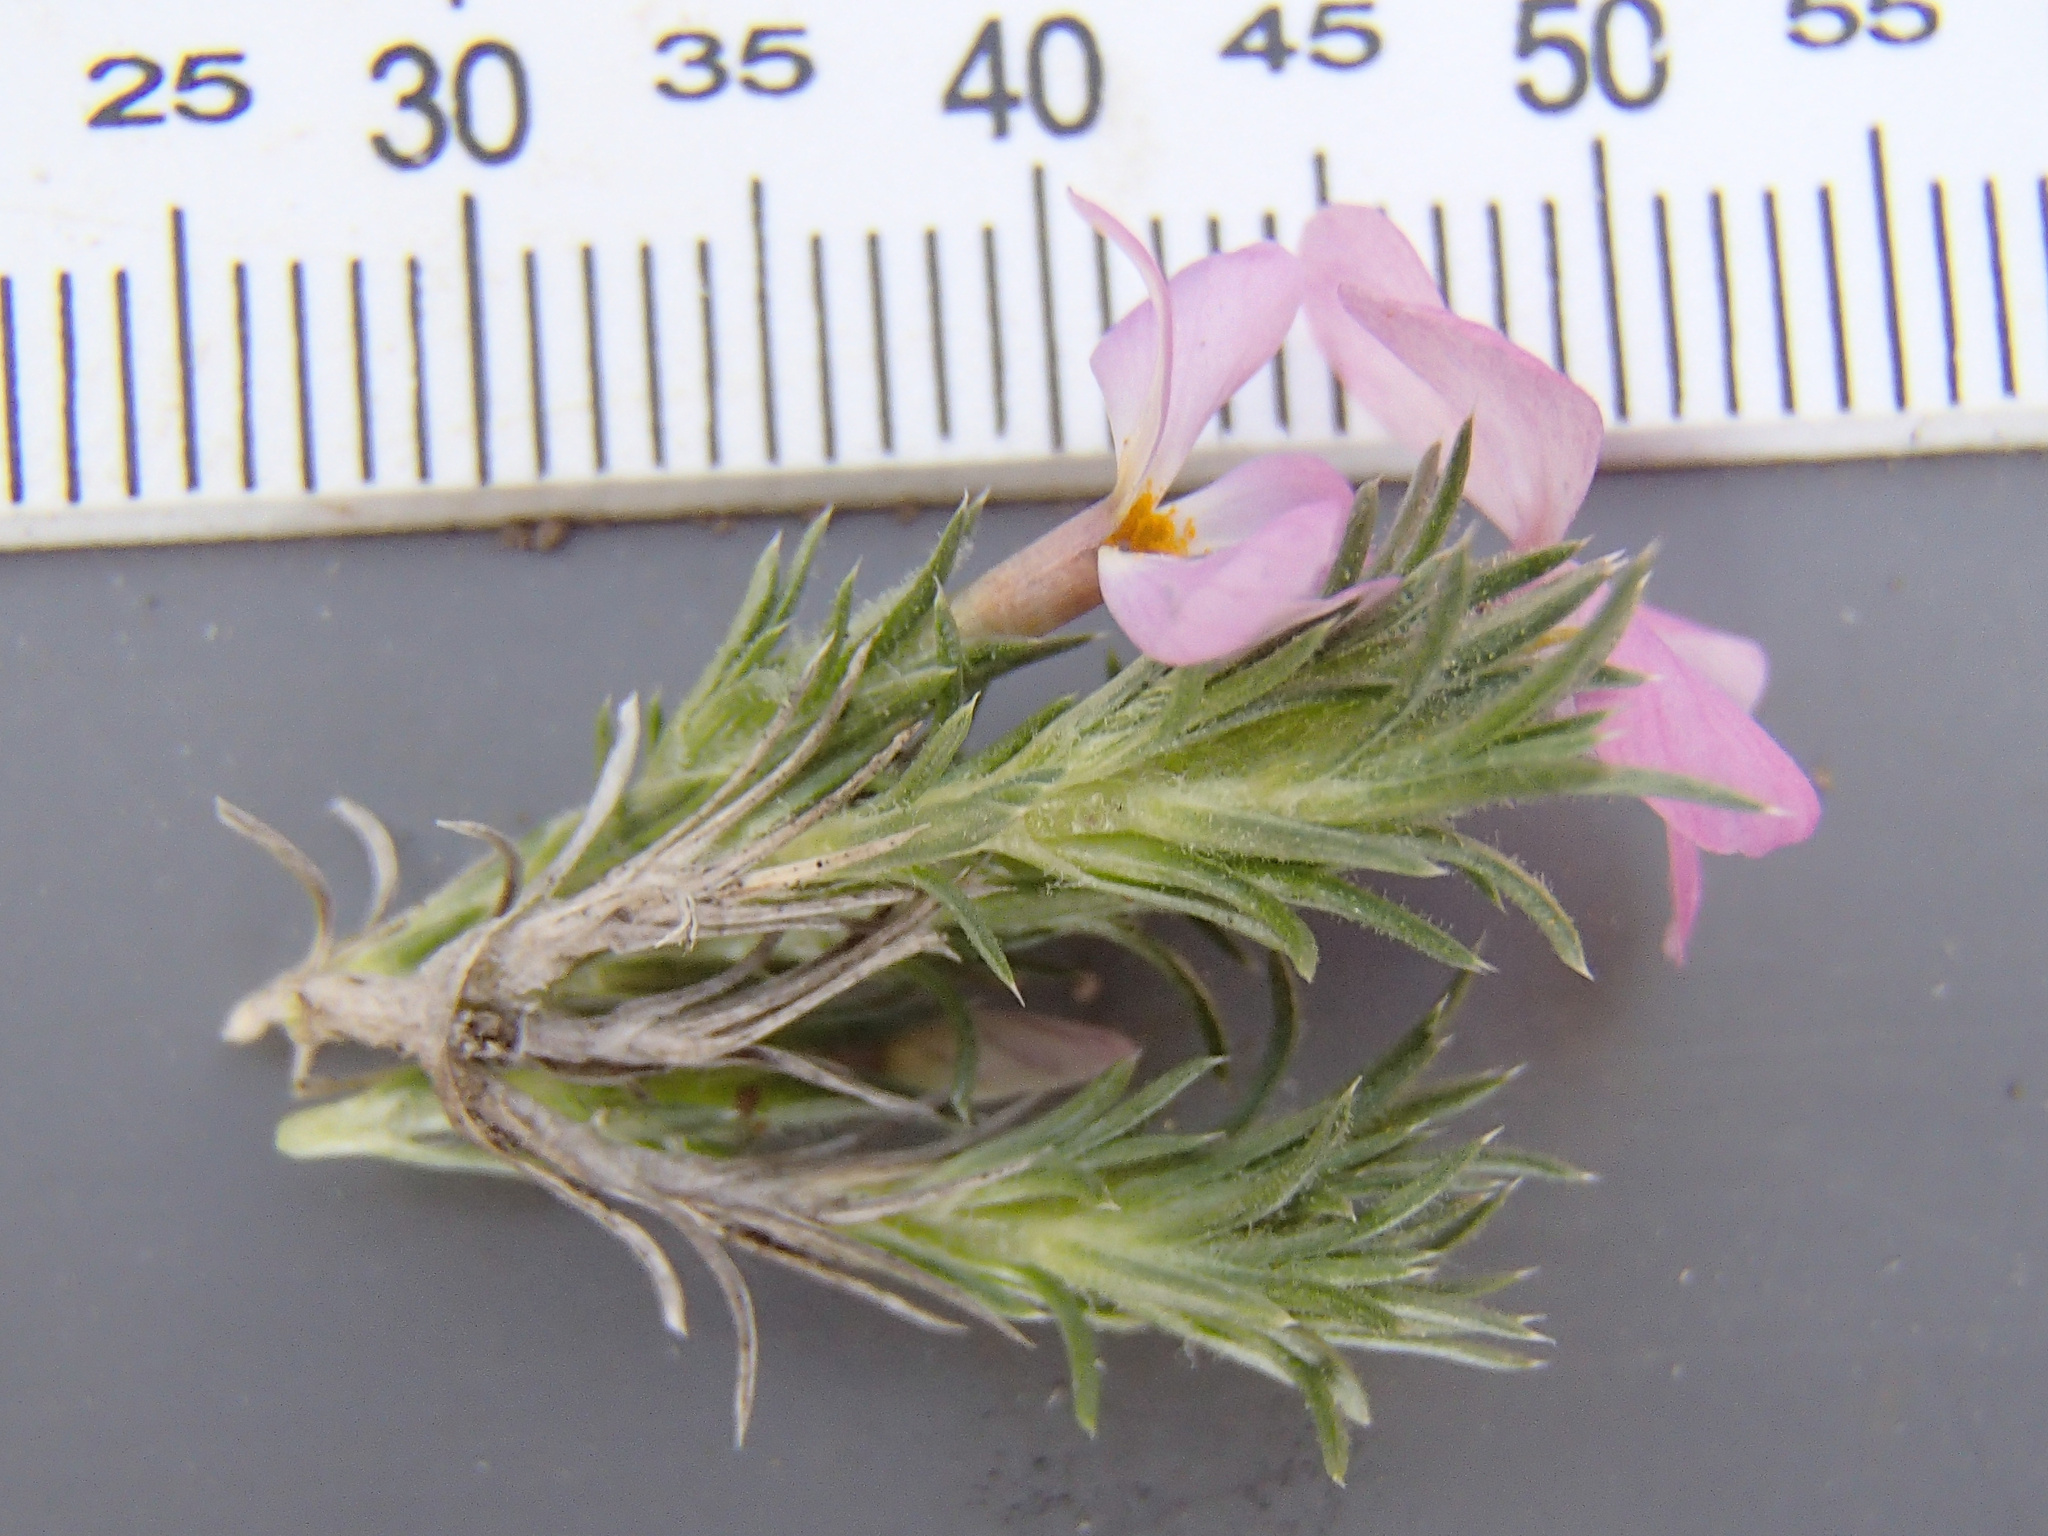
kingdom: Plantae
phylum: Tracheophyta
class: Magnoliopsida
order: Ericales
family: Polemoniaceae
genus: Phlox
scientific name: Phlox douglasii
